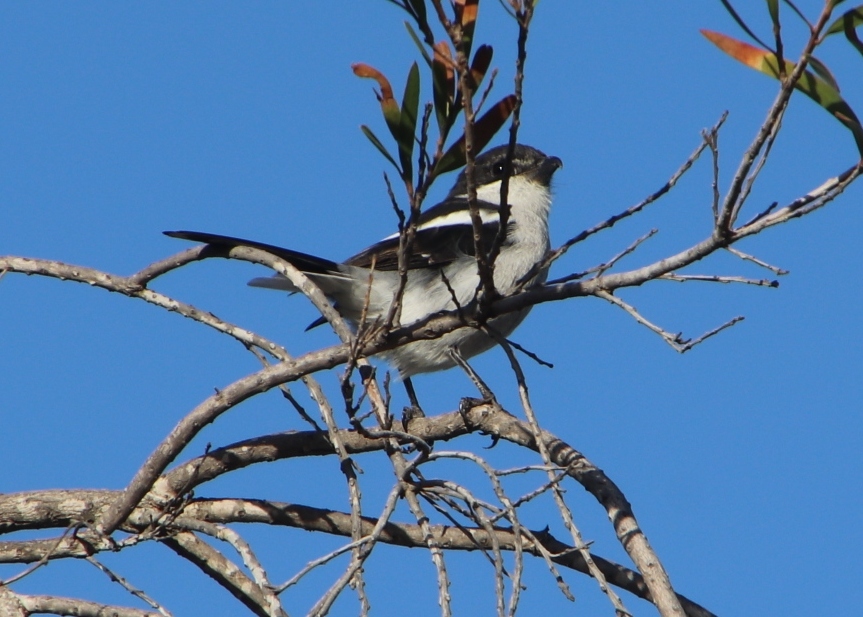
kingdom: Animalia
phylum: Chordata
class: Aves
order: Passeriformes
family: Laniidae
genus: Lanius
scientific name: Lanius collaris
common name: Southern fiscal
